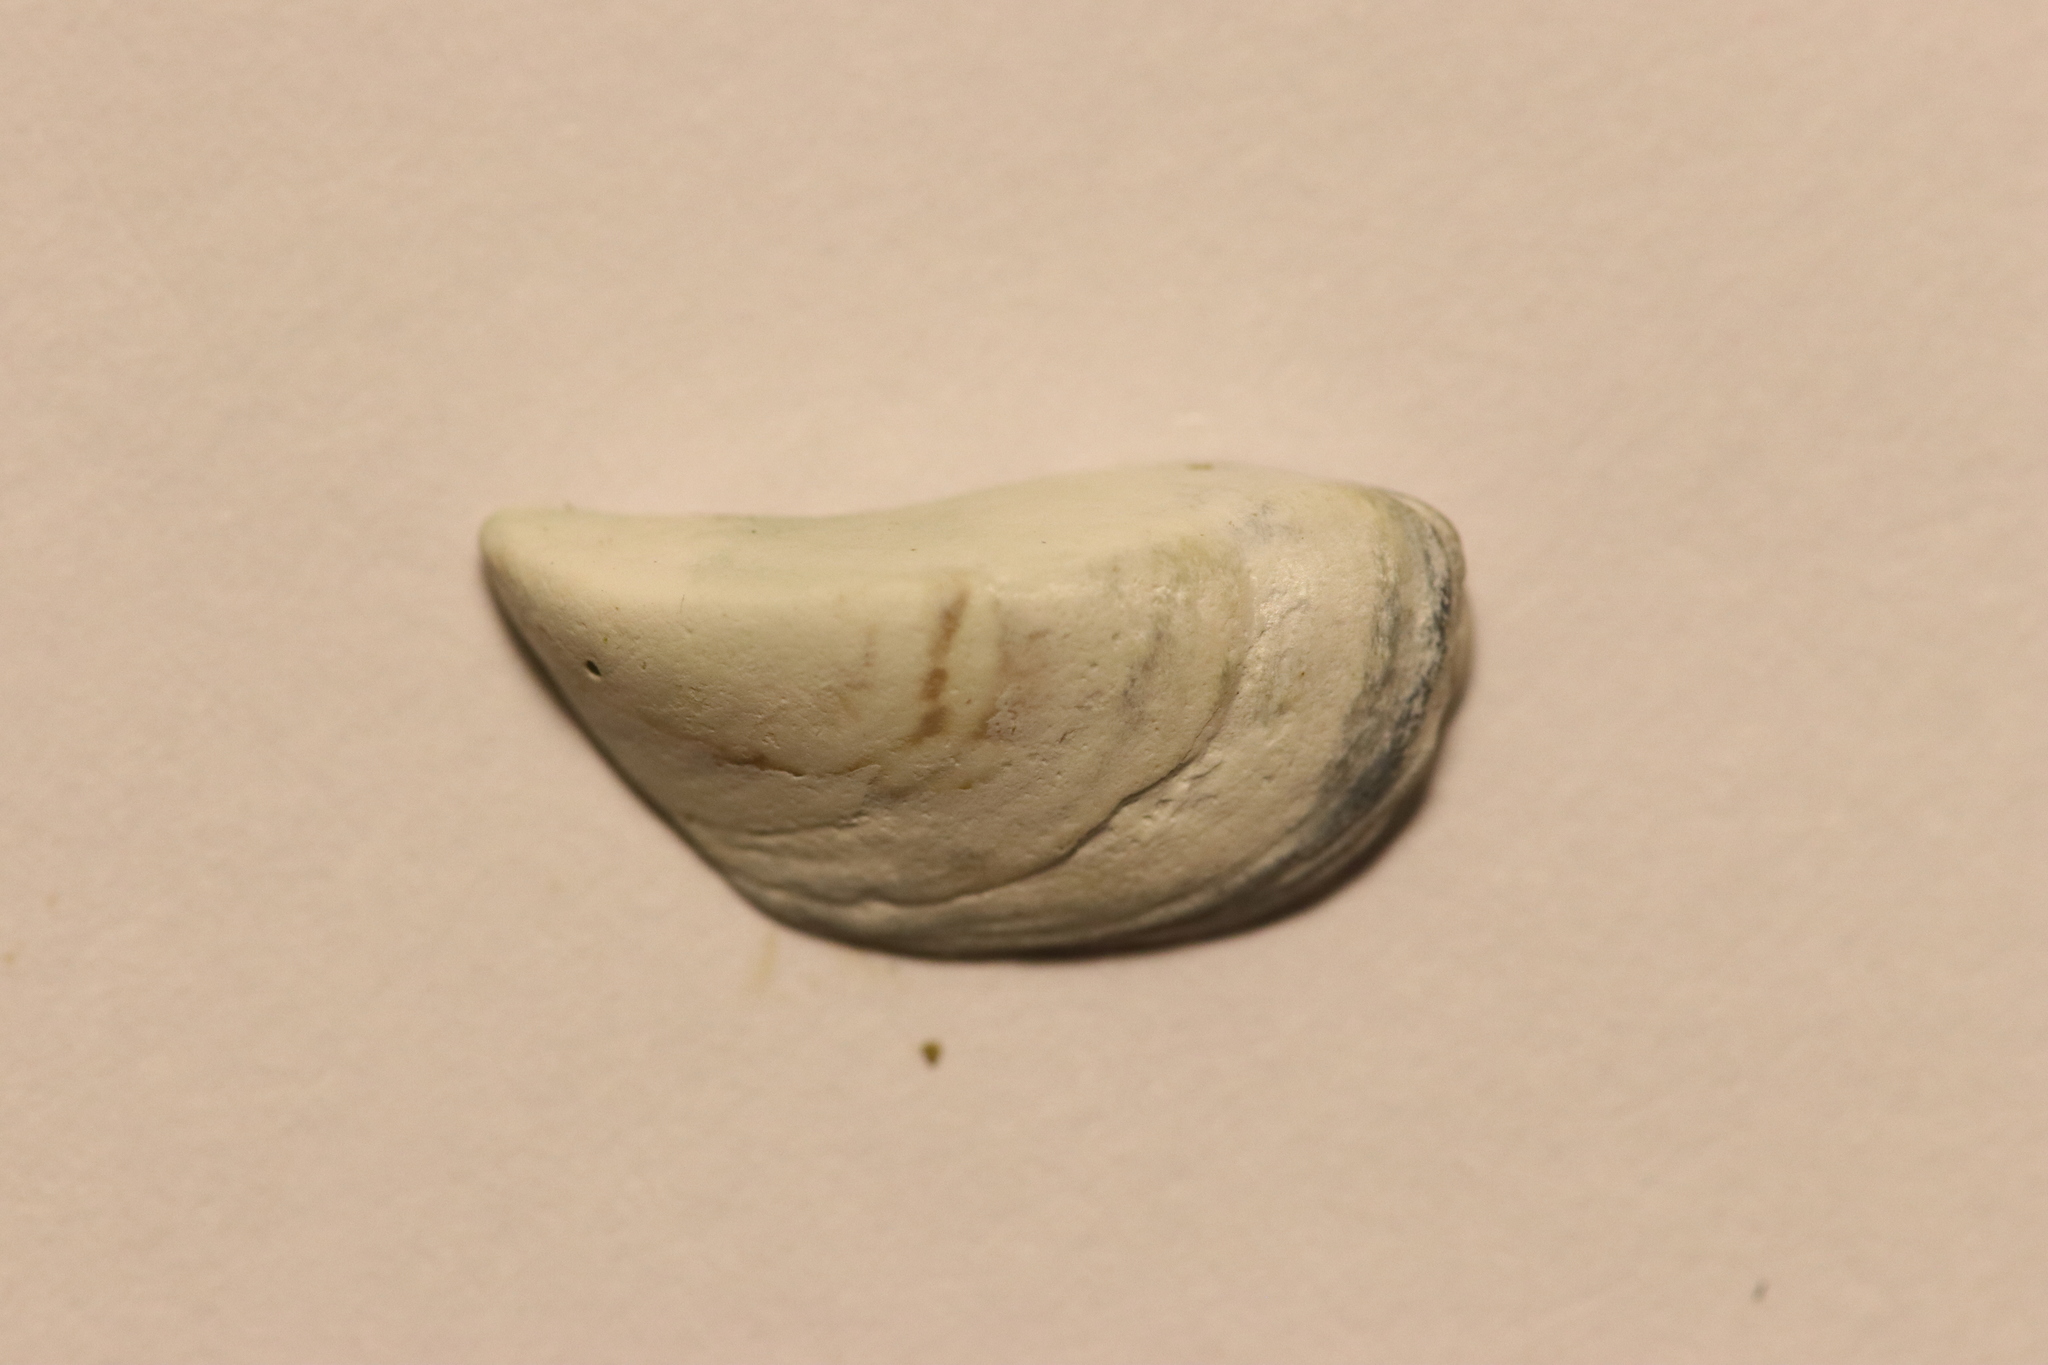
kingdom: Animalia
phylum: Mollusca
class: Bivalvia
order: Myida
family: Dreissenidae
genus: Dreissena
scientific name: Dreissena polymorpha
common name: Zebra mussel
